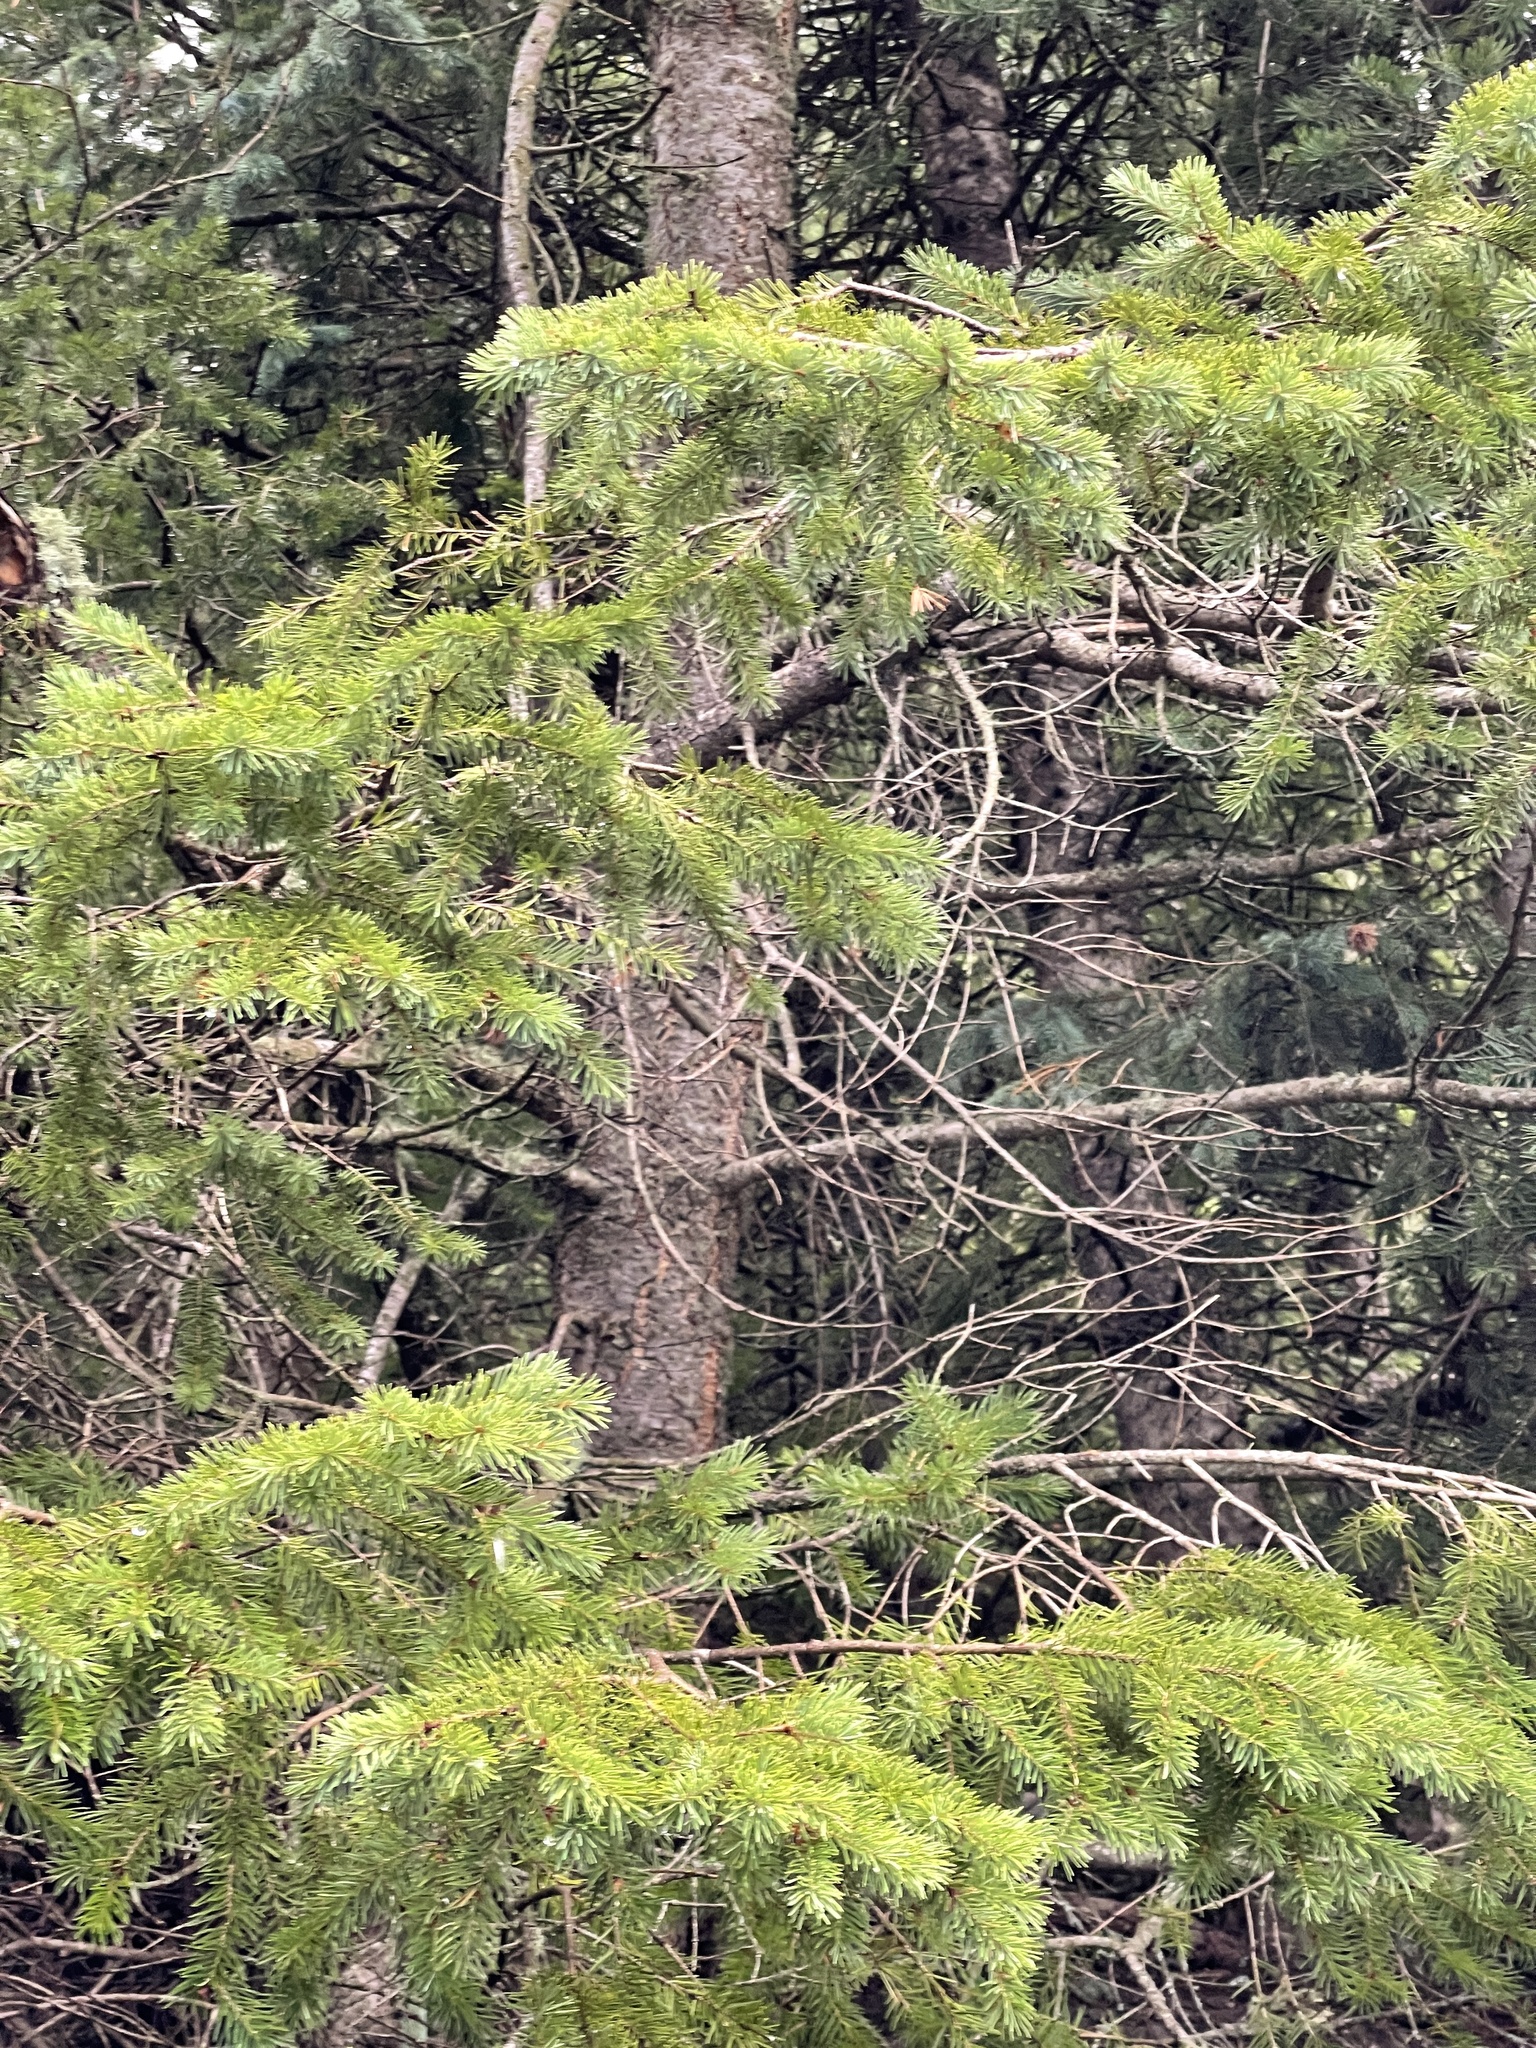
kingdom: Plantae
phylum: Tracheophyta
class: Pinopsida
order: Pinales
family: Pinaceae
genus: Pseudotsuga
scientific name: Pseudotsuga menziesii
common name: Douglas fir
